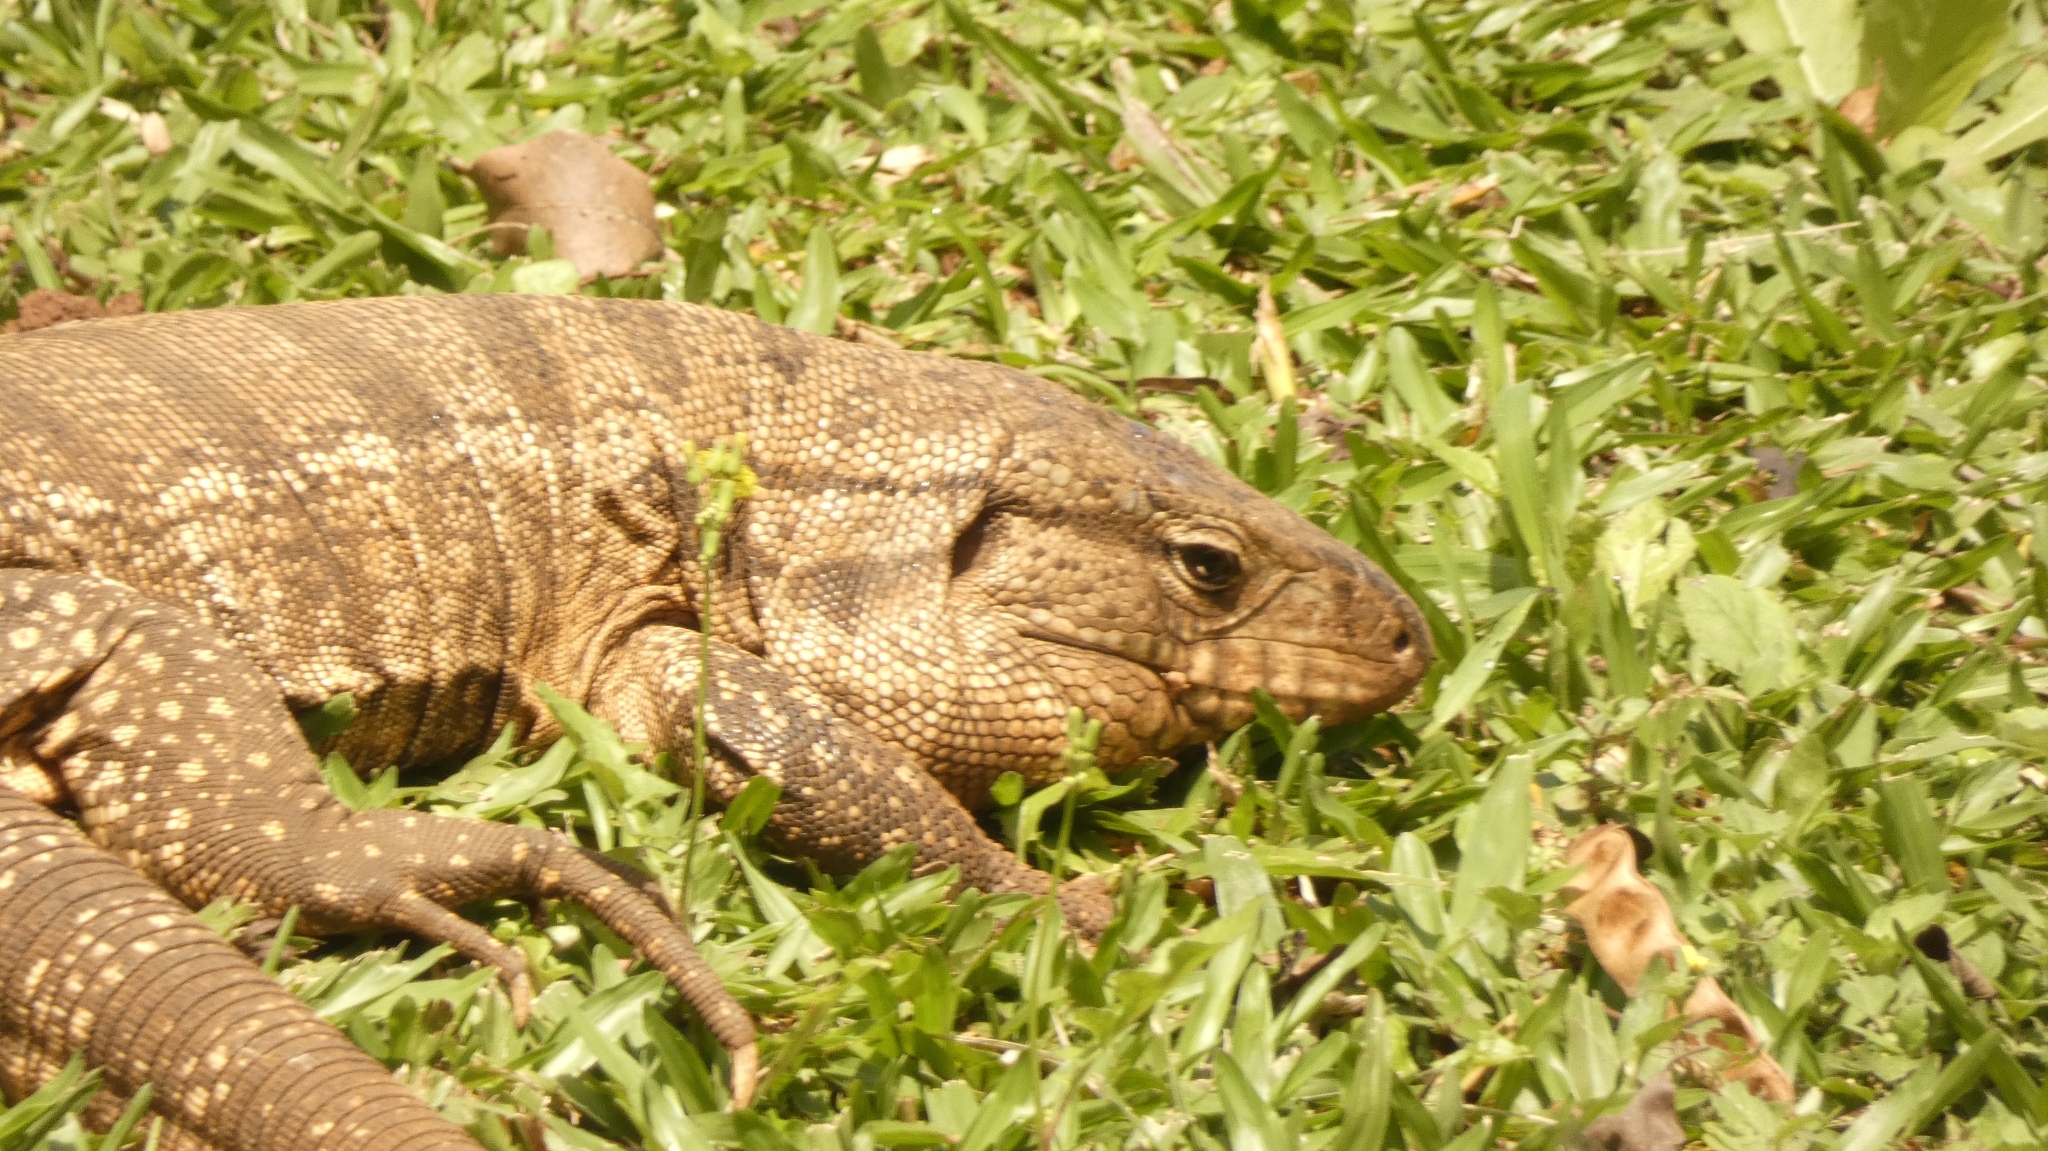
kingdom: Animalia
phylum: Chordata
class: Squamata
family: Teiidae
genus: Salvator
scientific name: Salvator merianae
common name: Argentine black and white tegu
